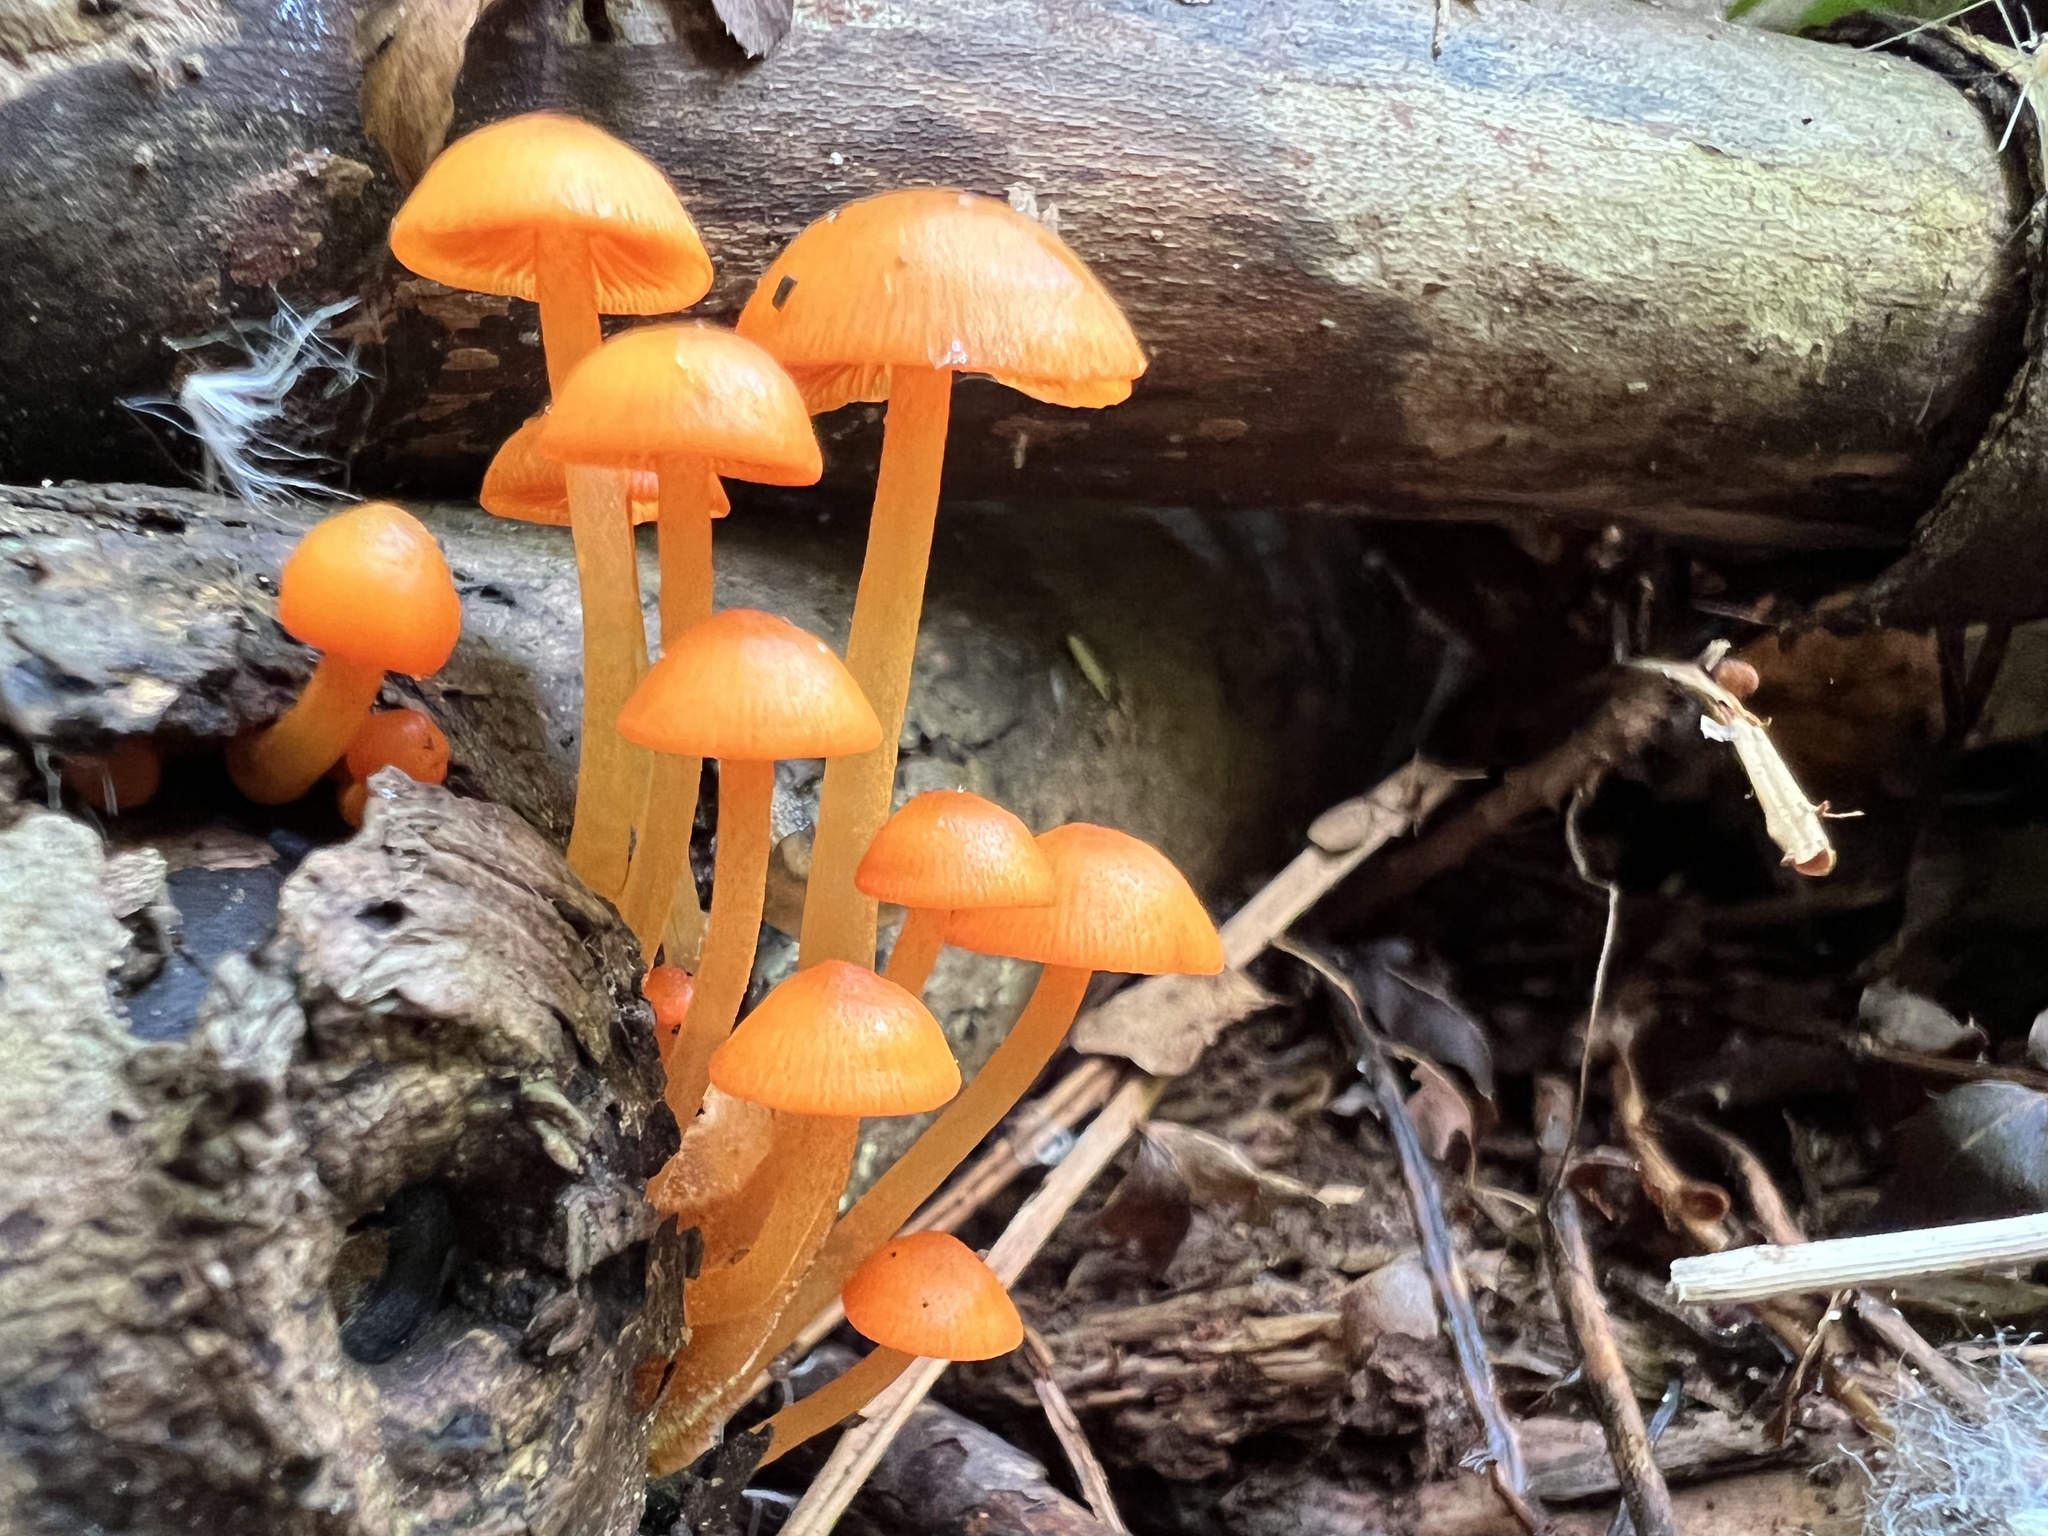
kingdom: Fungi
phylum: Basidiomycota
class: Agaricomycetes
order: Agaricales
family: Mycenaceae
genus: Mycena
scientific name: Mycena leaiana
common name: Orange mycena
